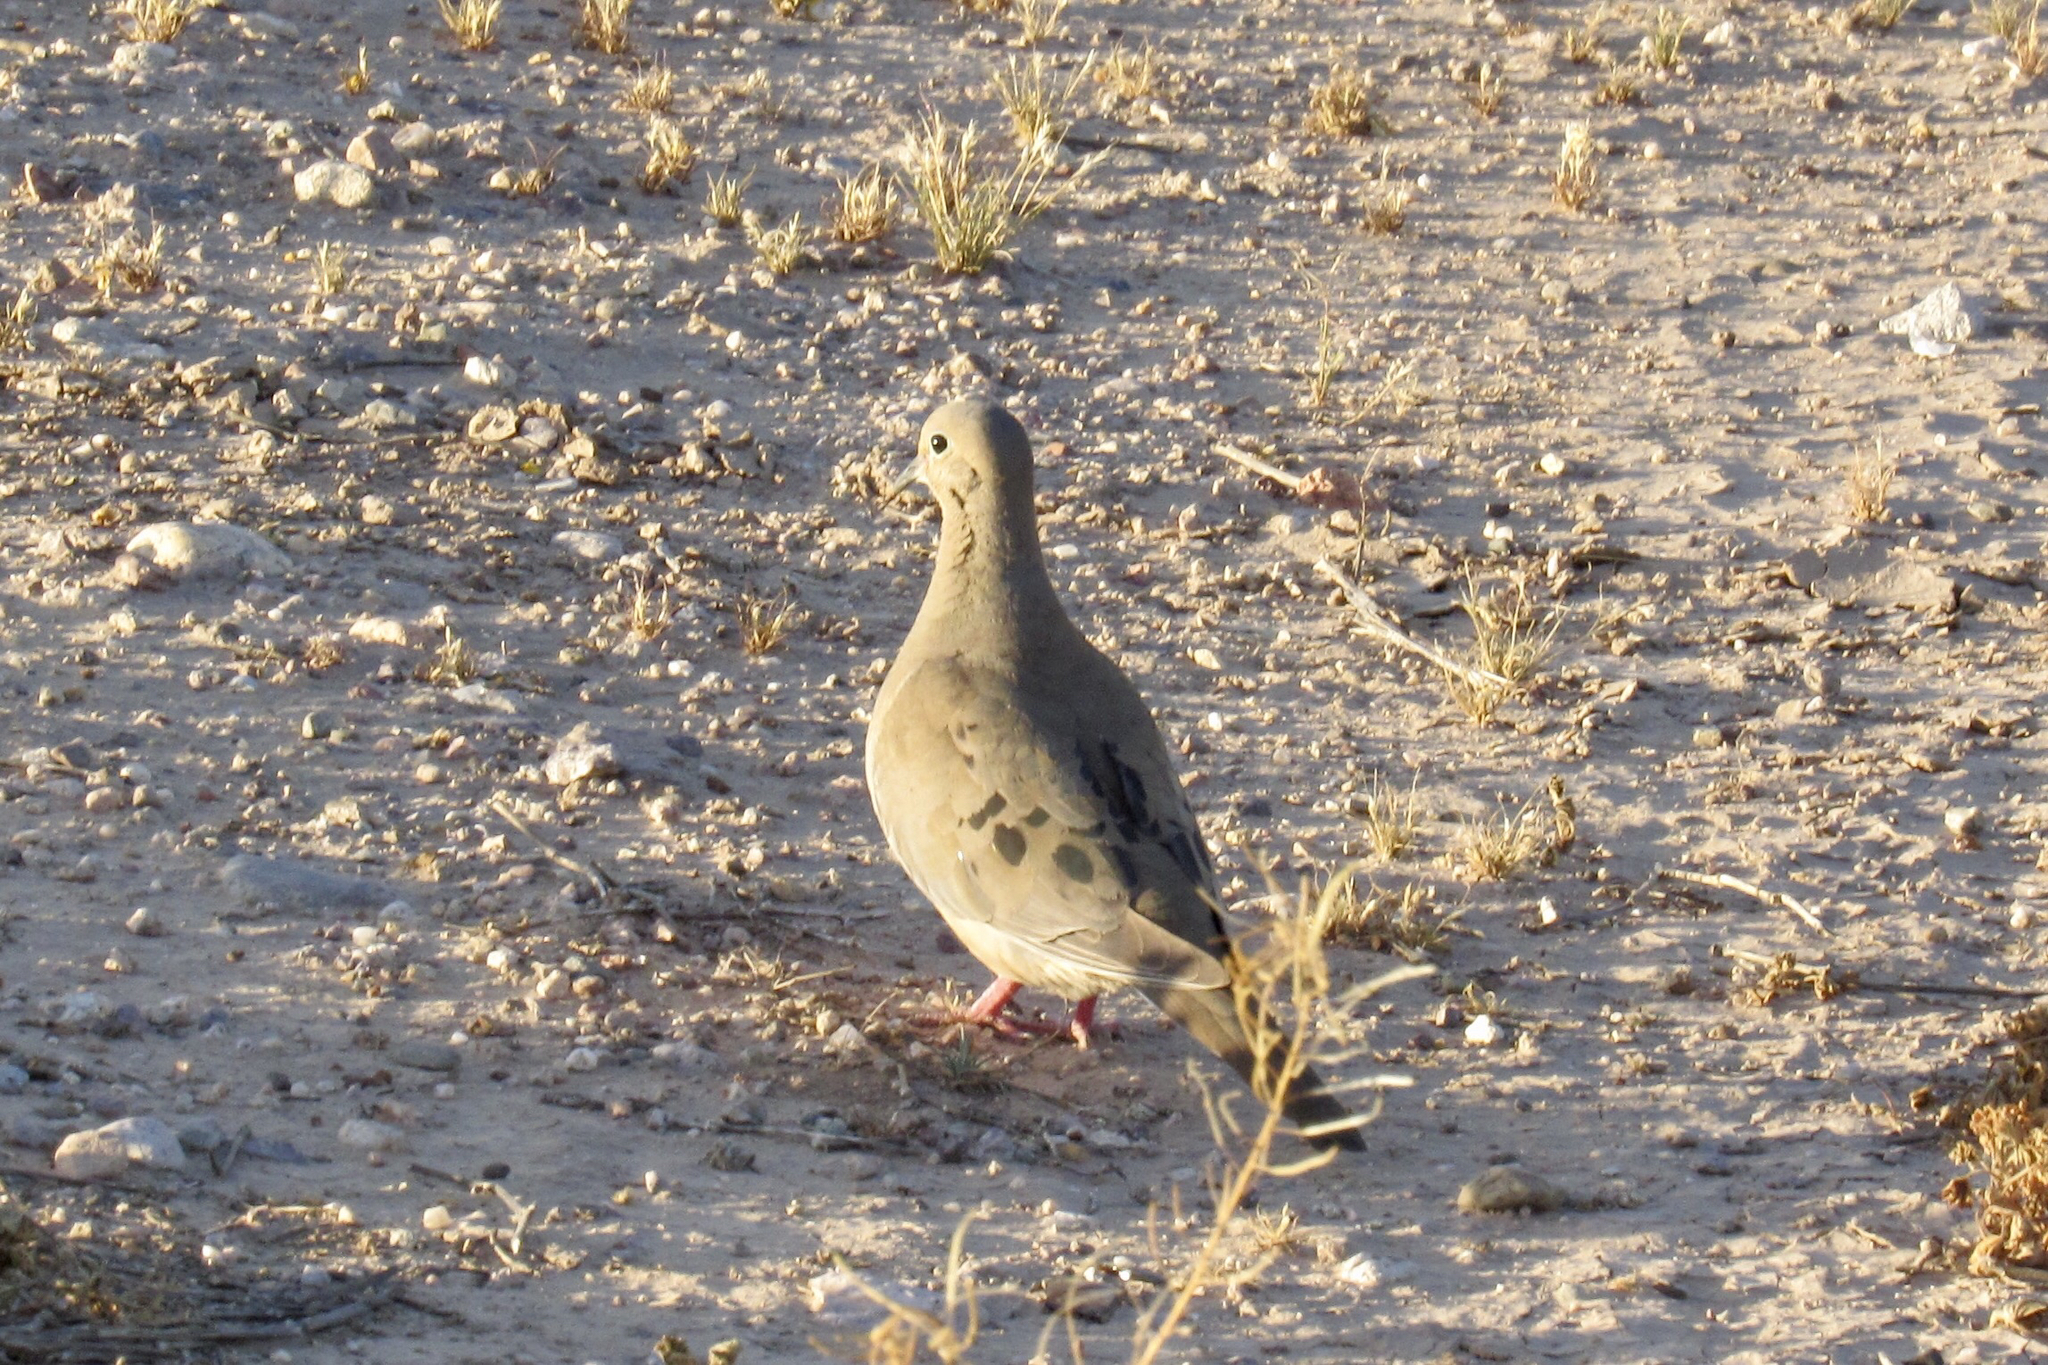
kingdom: Animalia
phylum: Chordata
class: Aves
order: Columbiformes
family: Columbidae
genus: Zenaida
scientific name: Zenaida macroura
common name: Mourning dove
